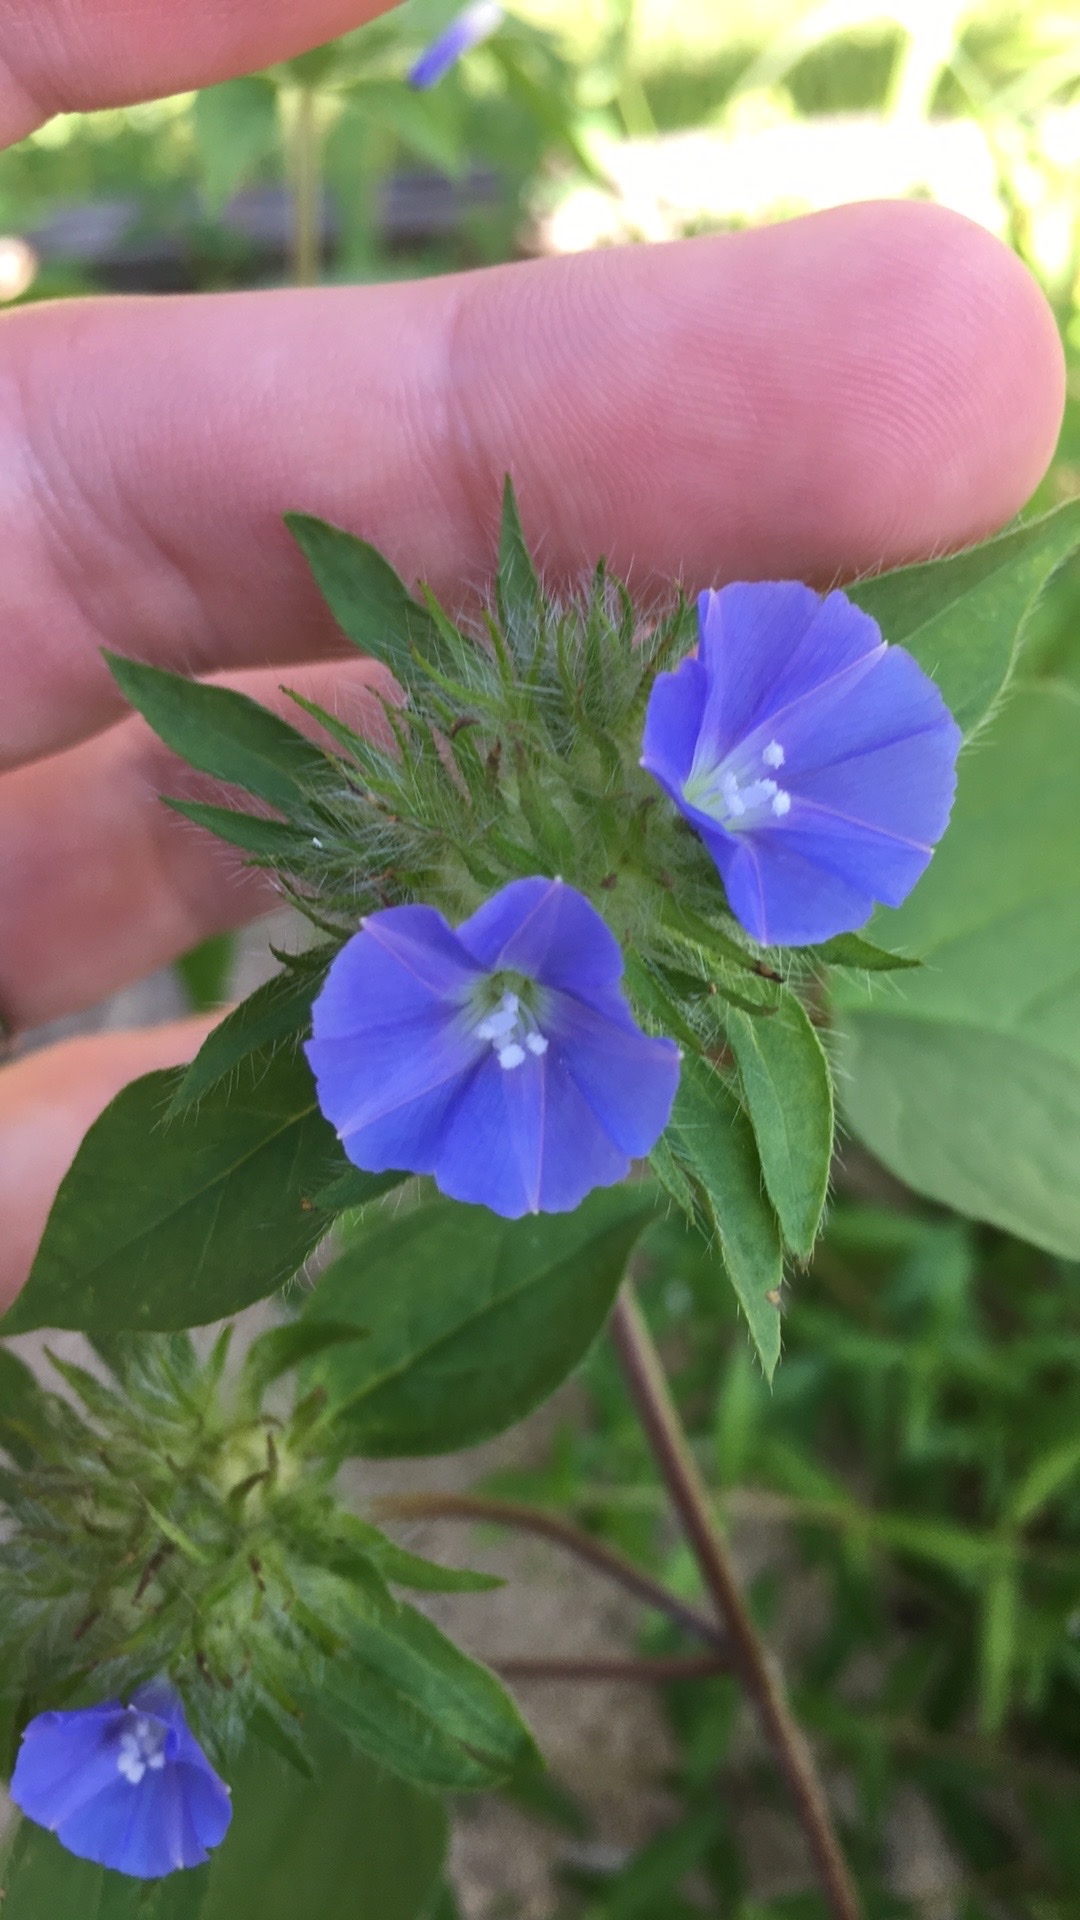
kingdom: Plantae
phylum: Tracheophyta
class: Magnoliopsida
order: Solanales
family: Convolvulaceae
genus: Jacquemontia
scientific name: Jacquemontia tamnifolia
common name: Hairy clustervine
